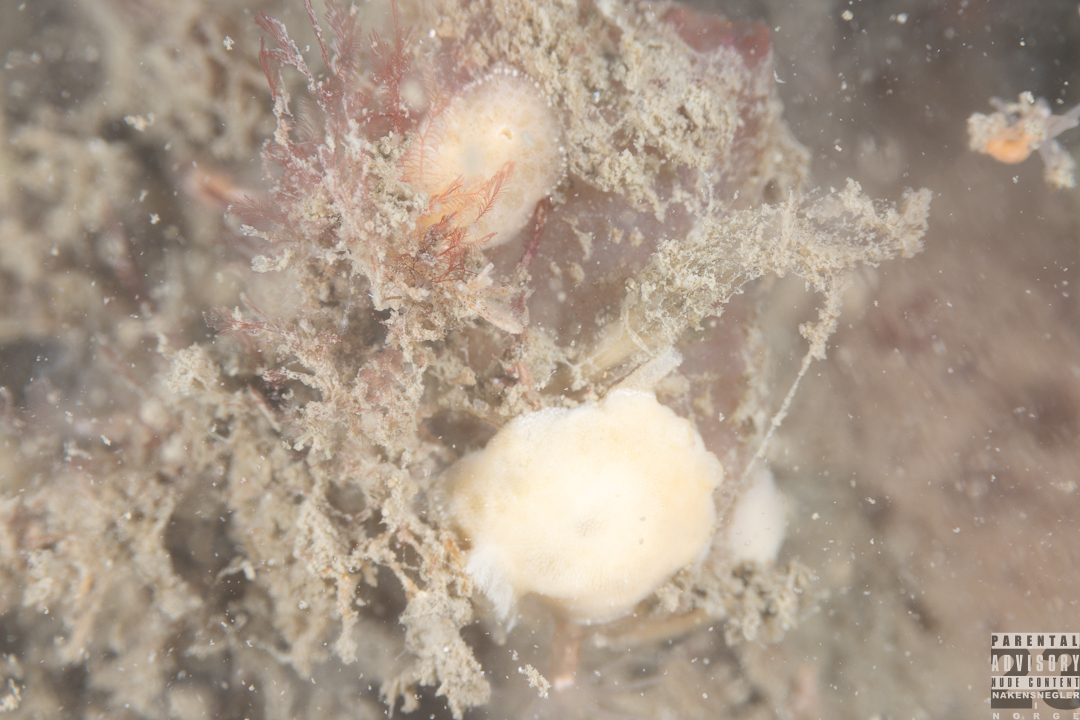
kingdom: Animalia
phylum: Mollusca
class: Gastropoda
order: Nudibranchia
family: Discodorididae
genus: Jorunna
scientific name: Jorunna tomentosa
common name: Grey sea slug
